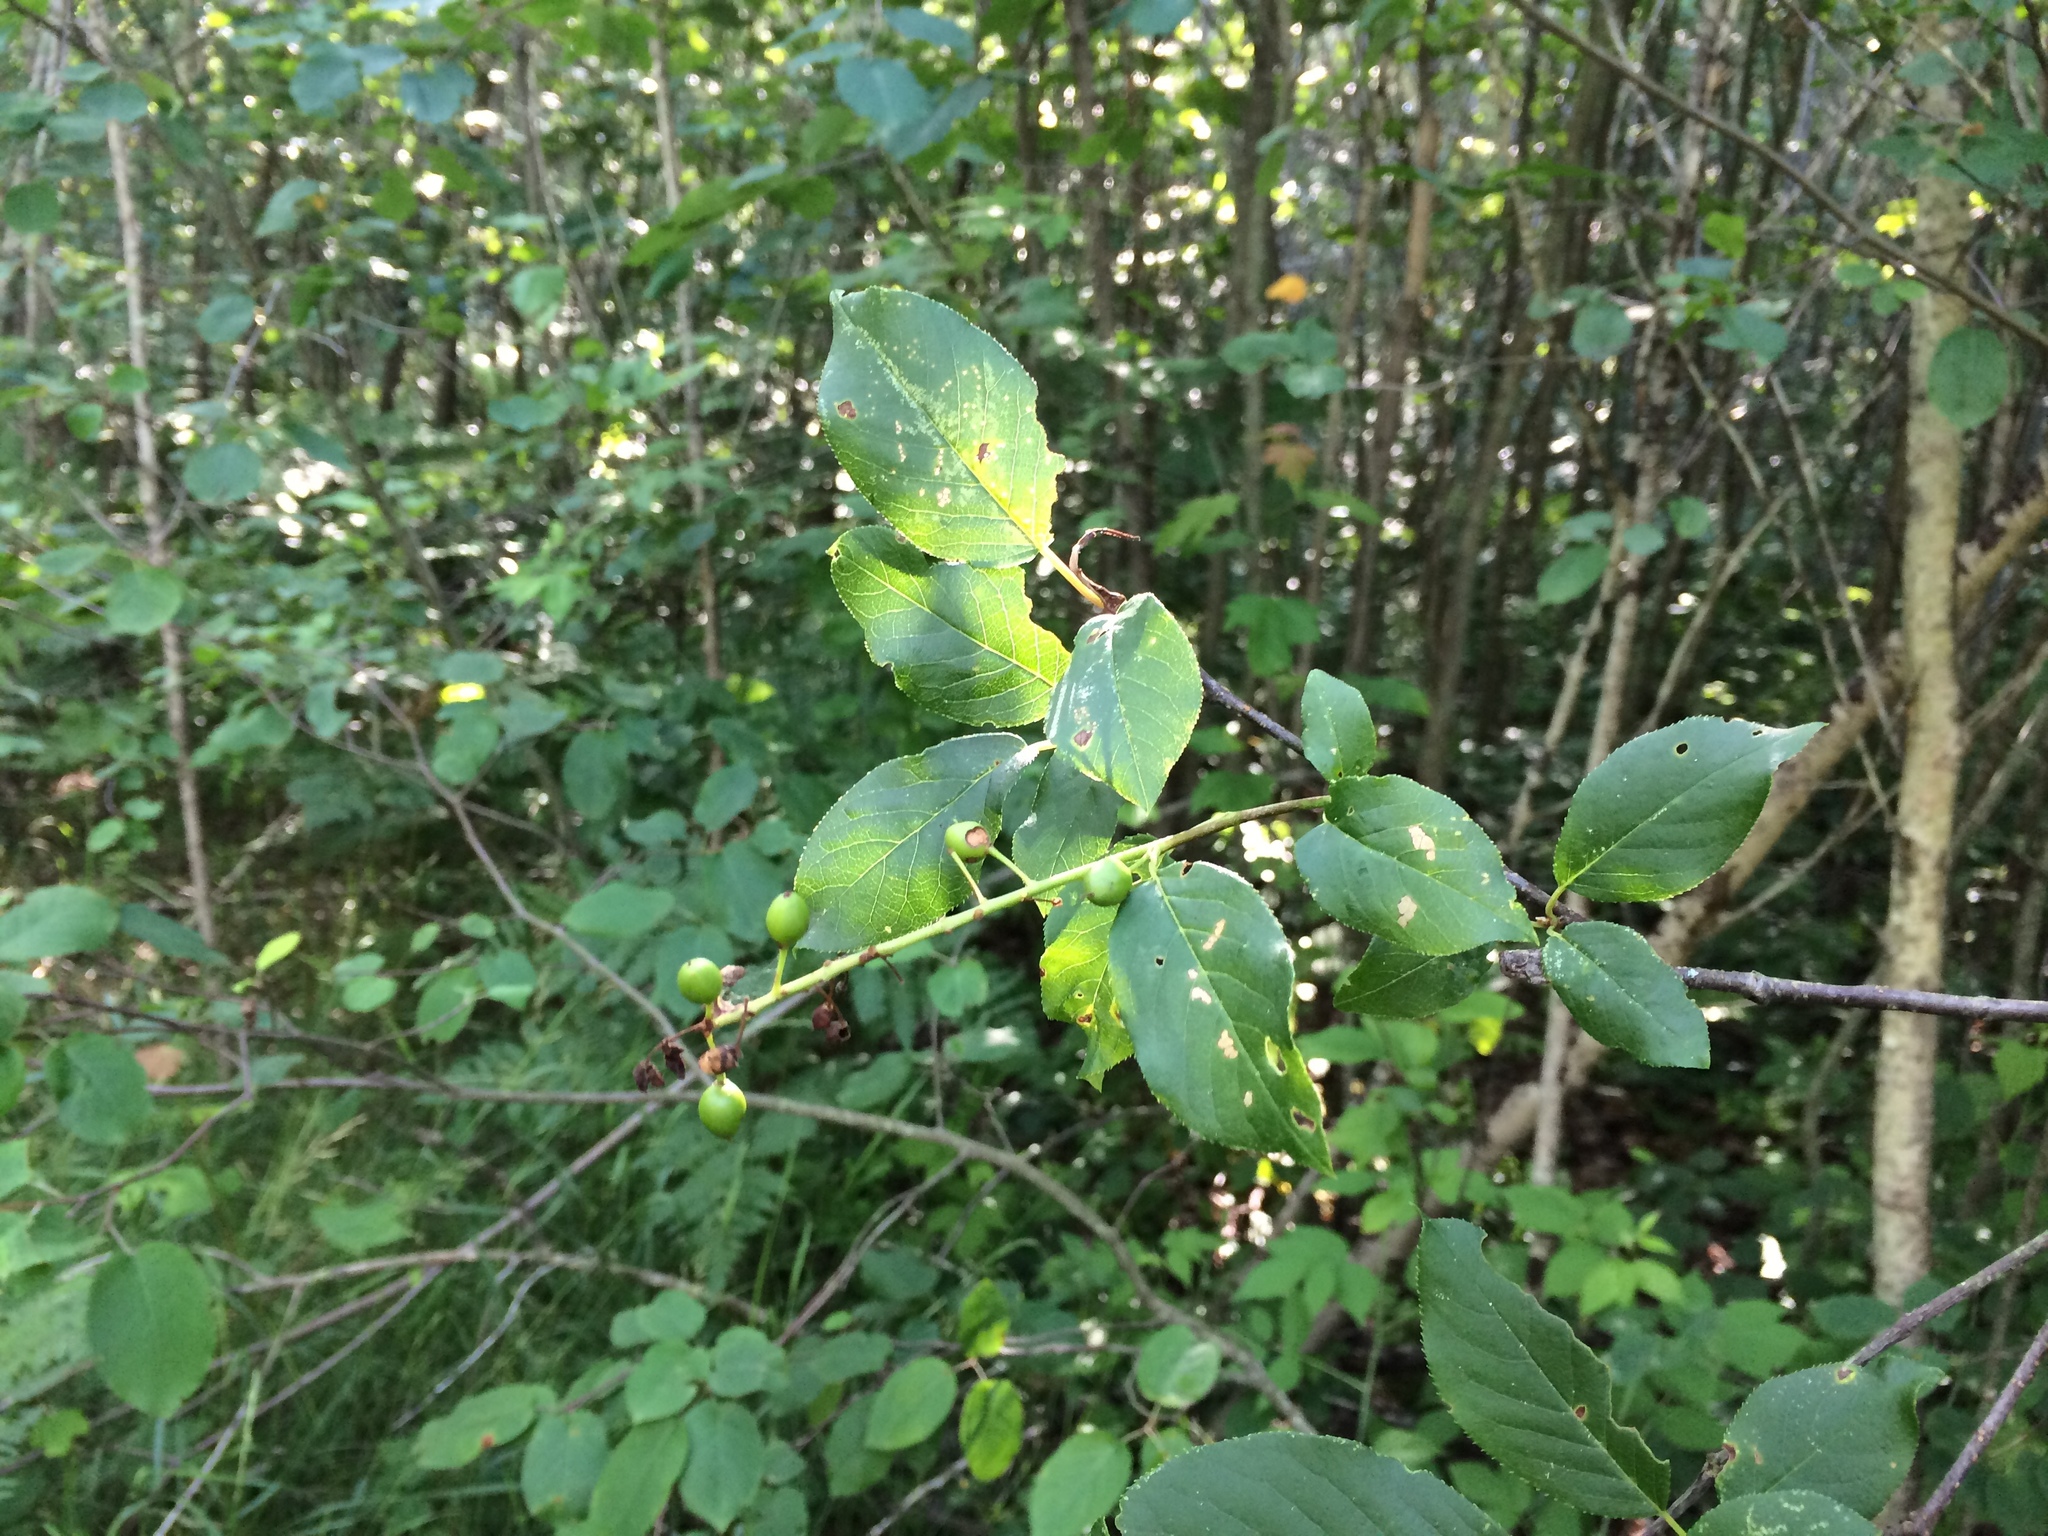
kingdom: Plantae
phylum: Tracheophyta
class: Magnoliopsida
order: Rosales
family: Rosaceae
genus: Prunus
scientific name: Prunus virginiana
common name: Chokecherry
